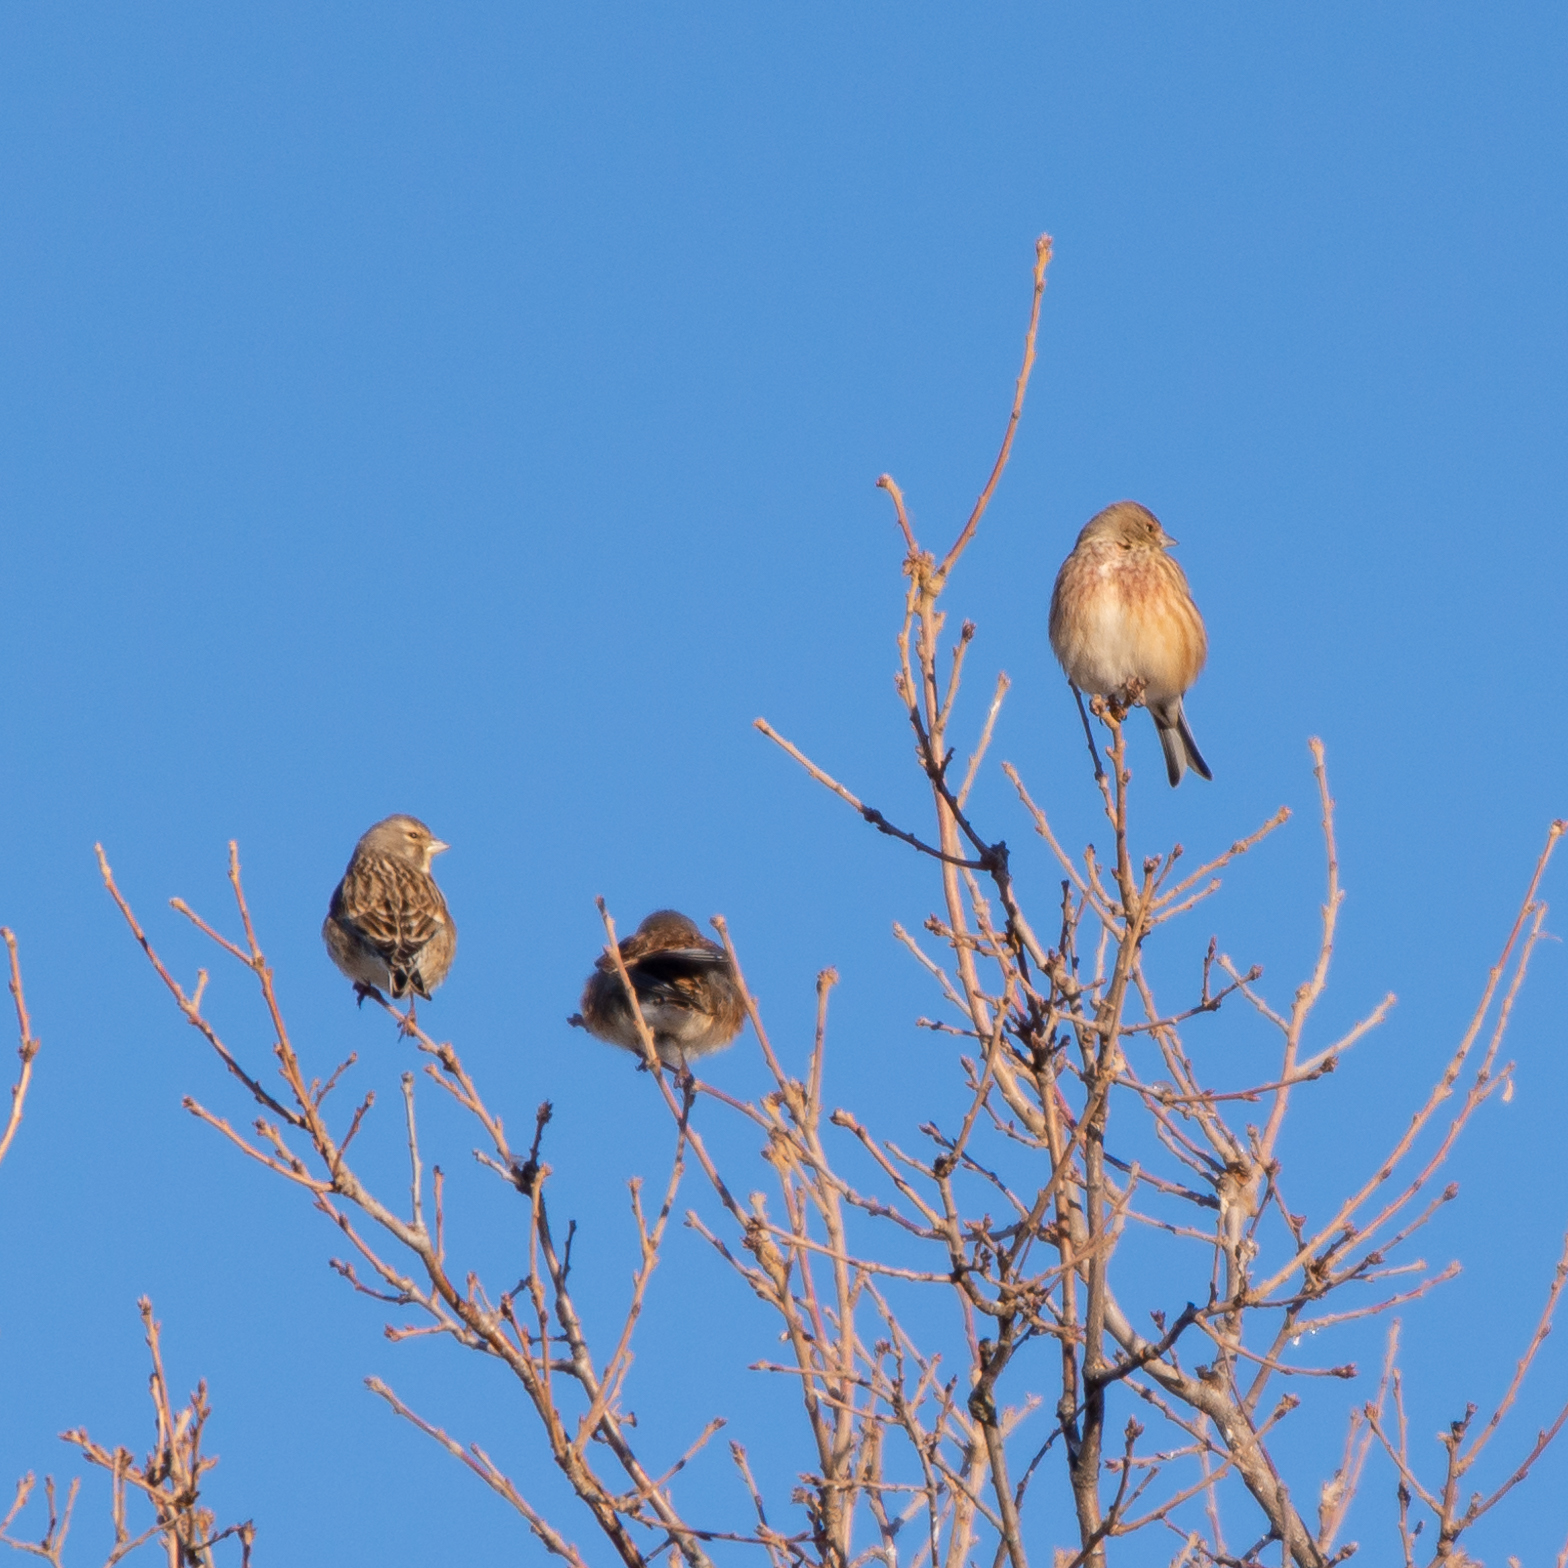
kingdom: Animalia
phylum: Chordata
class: Aves
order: Passeriformes
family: Fringillidae
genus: Linaria
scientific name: Linaria cannabina
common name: Common linnet
